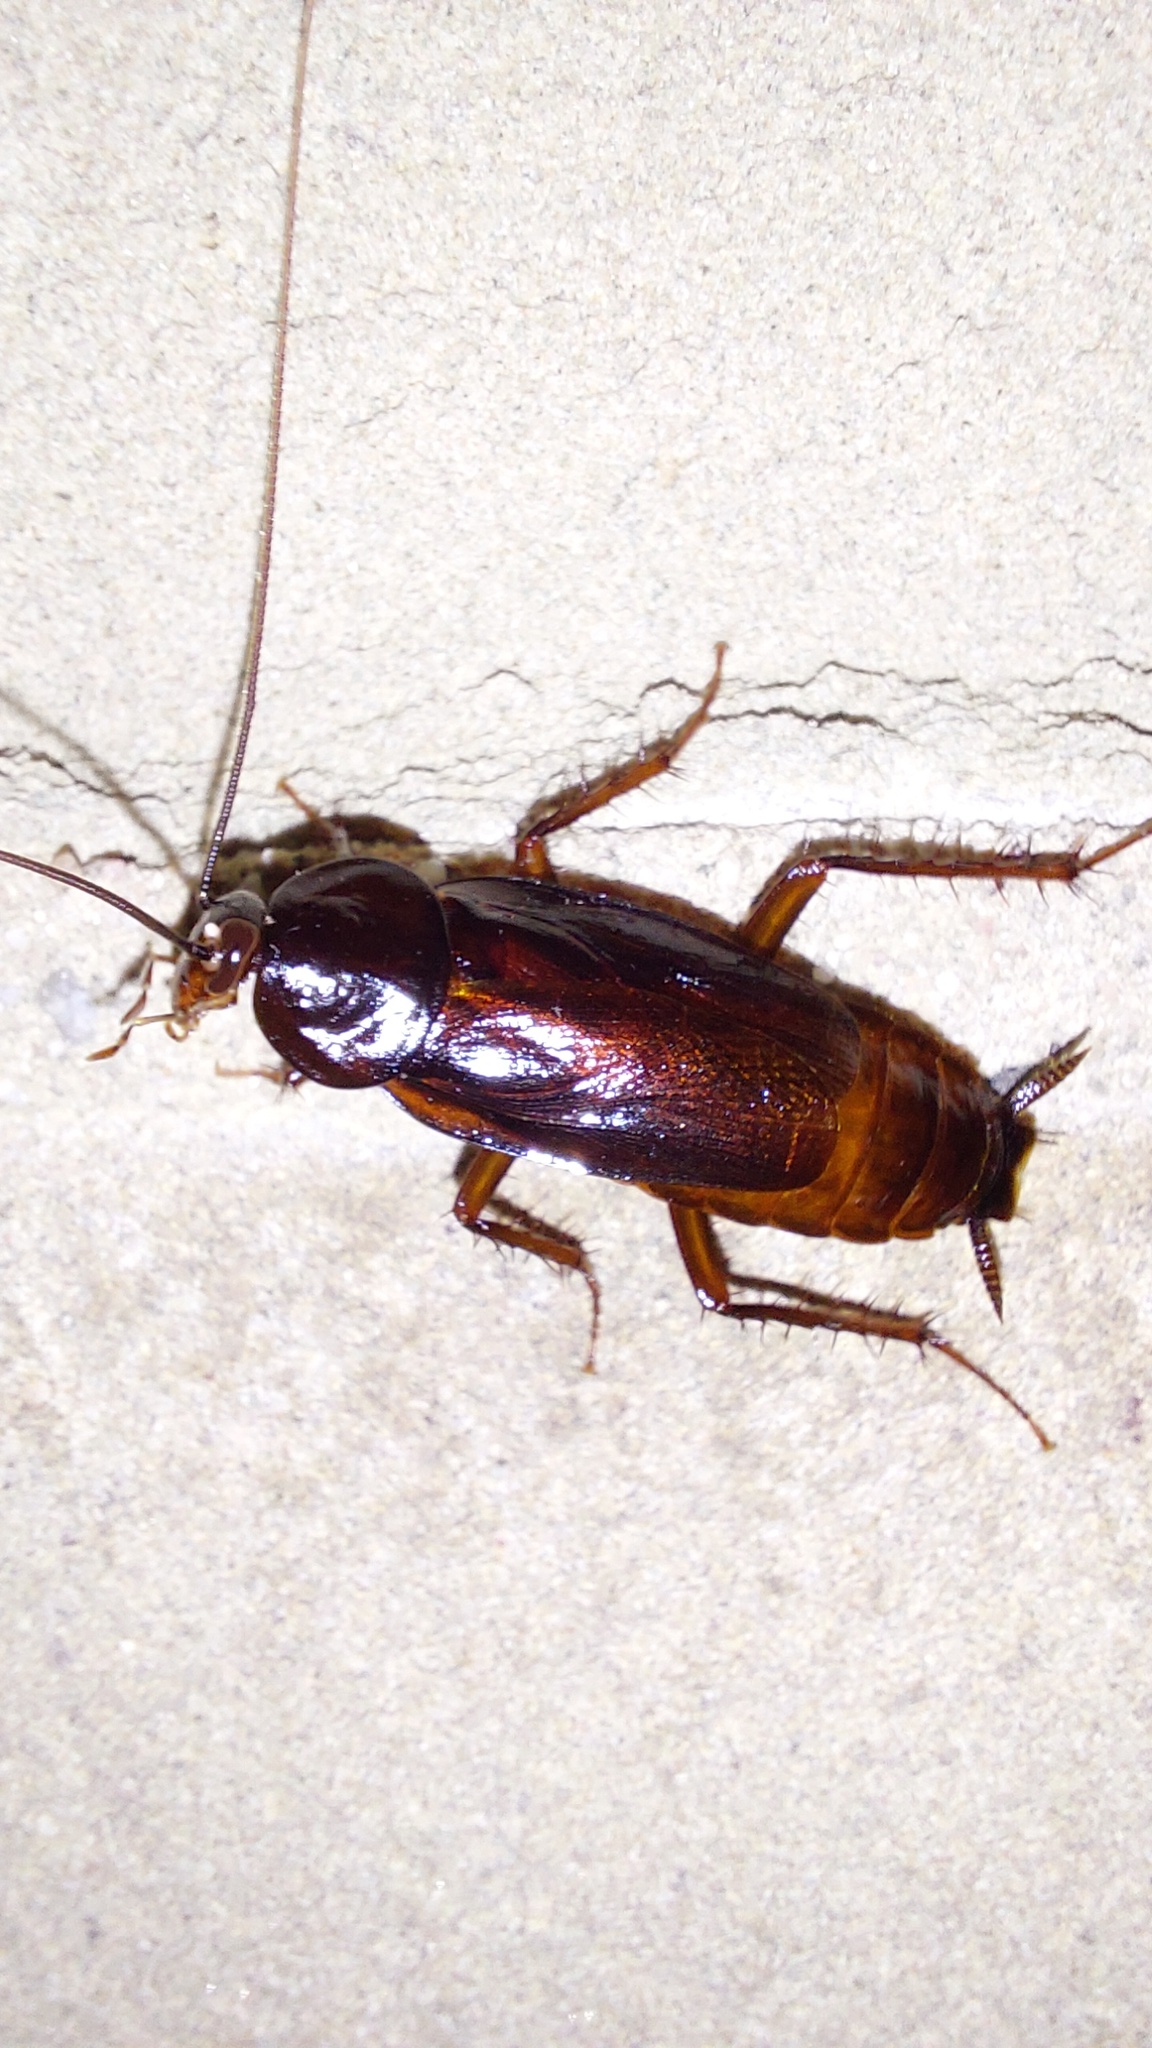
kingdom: Animalia
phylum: Arthropoda
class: Insecta
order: Blattodea
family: Blattidae
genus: Blatta
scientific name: Blatta orientalis
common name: Oriental cockroach
